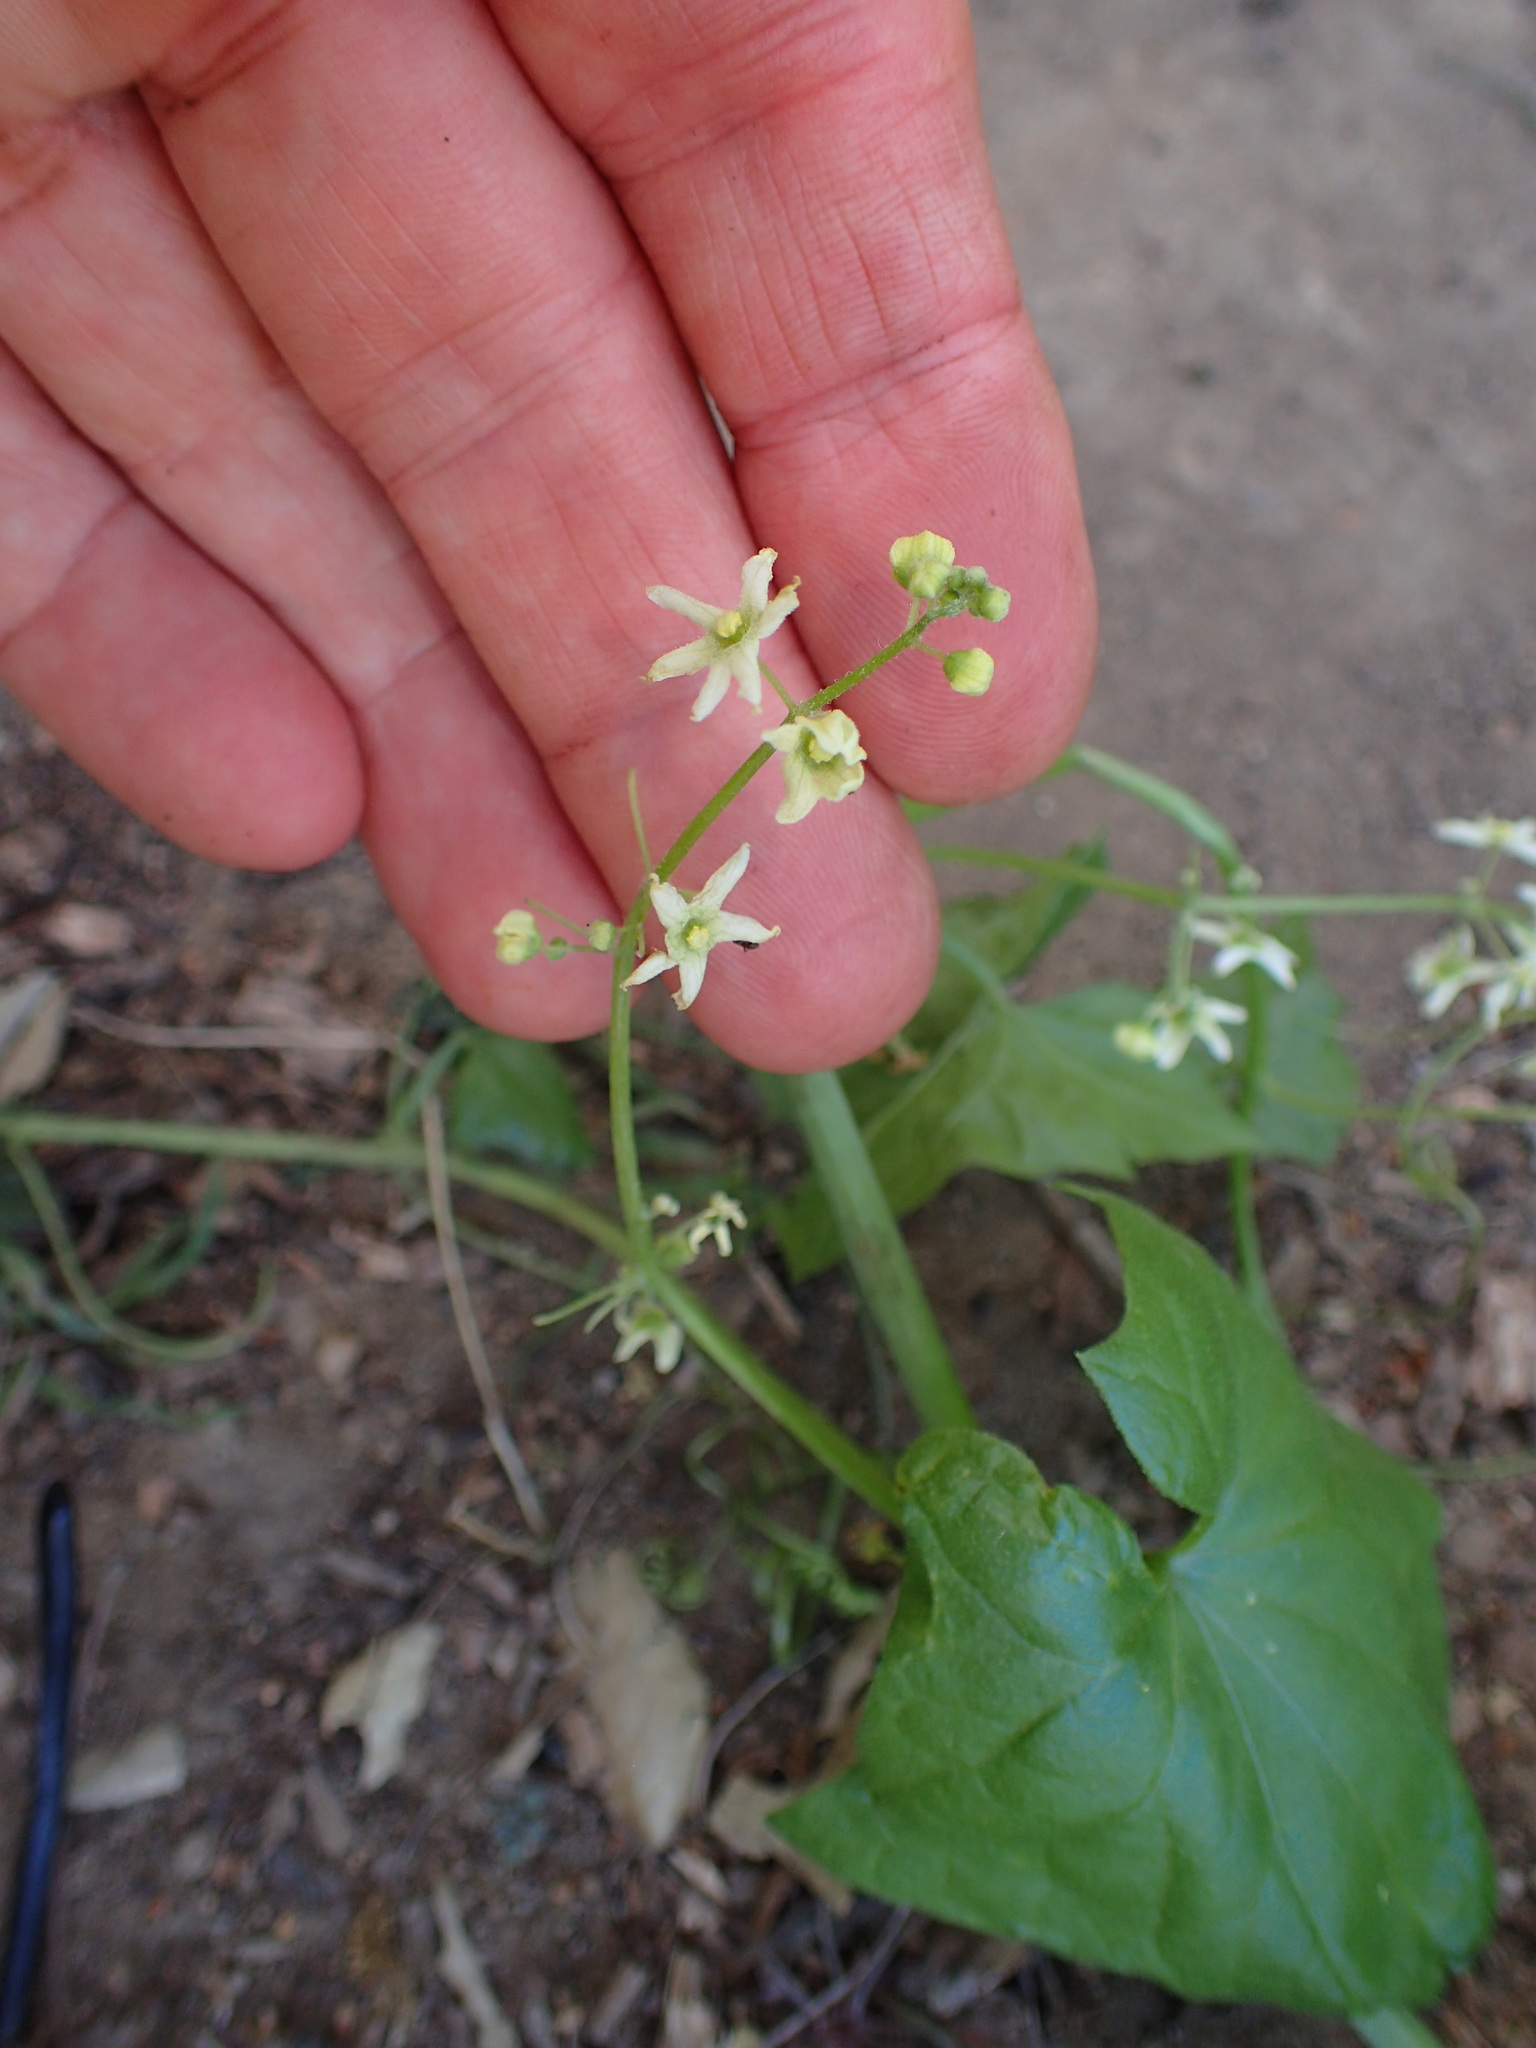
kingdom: Plantae
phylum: Tracheophyta
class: Magnoliopsida
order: Cucurbitales
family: Cucurbitaceae
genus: Marah
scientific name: Marah fabacea
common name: California manroot
